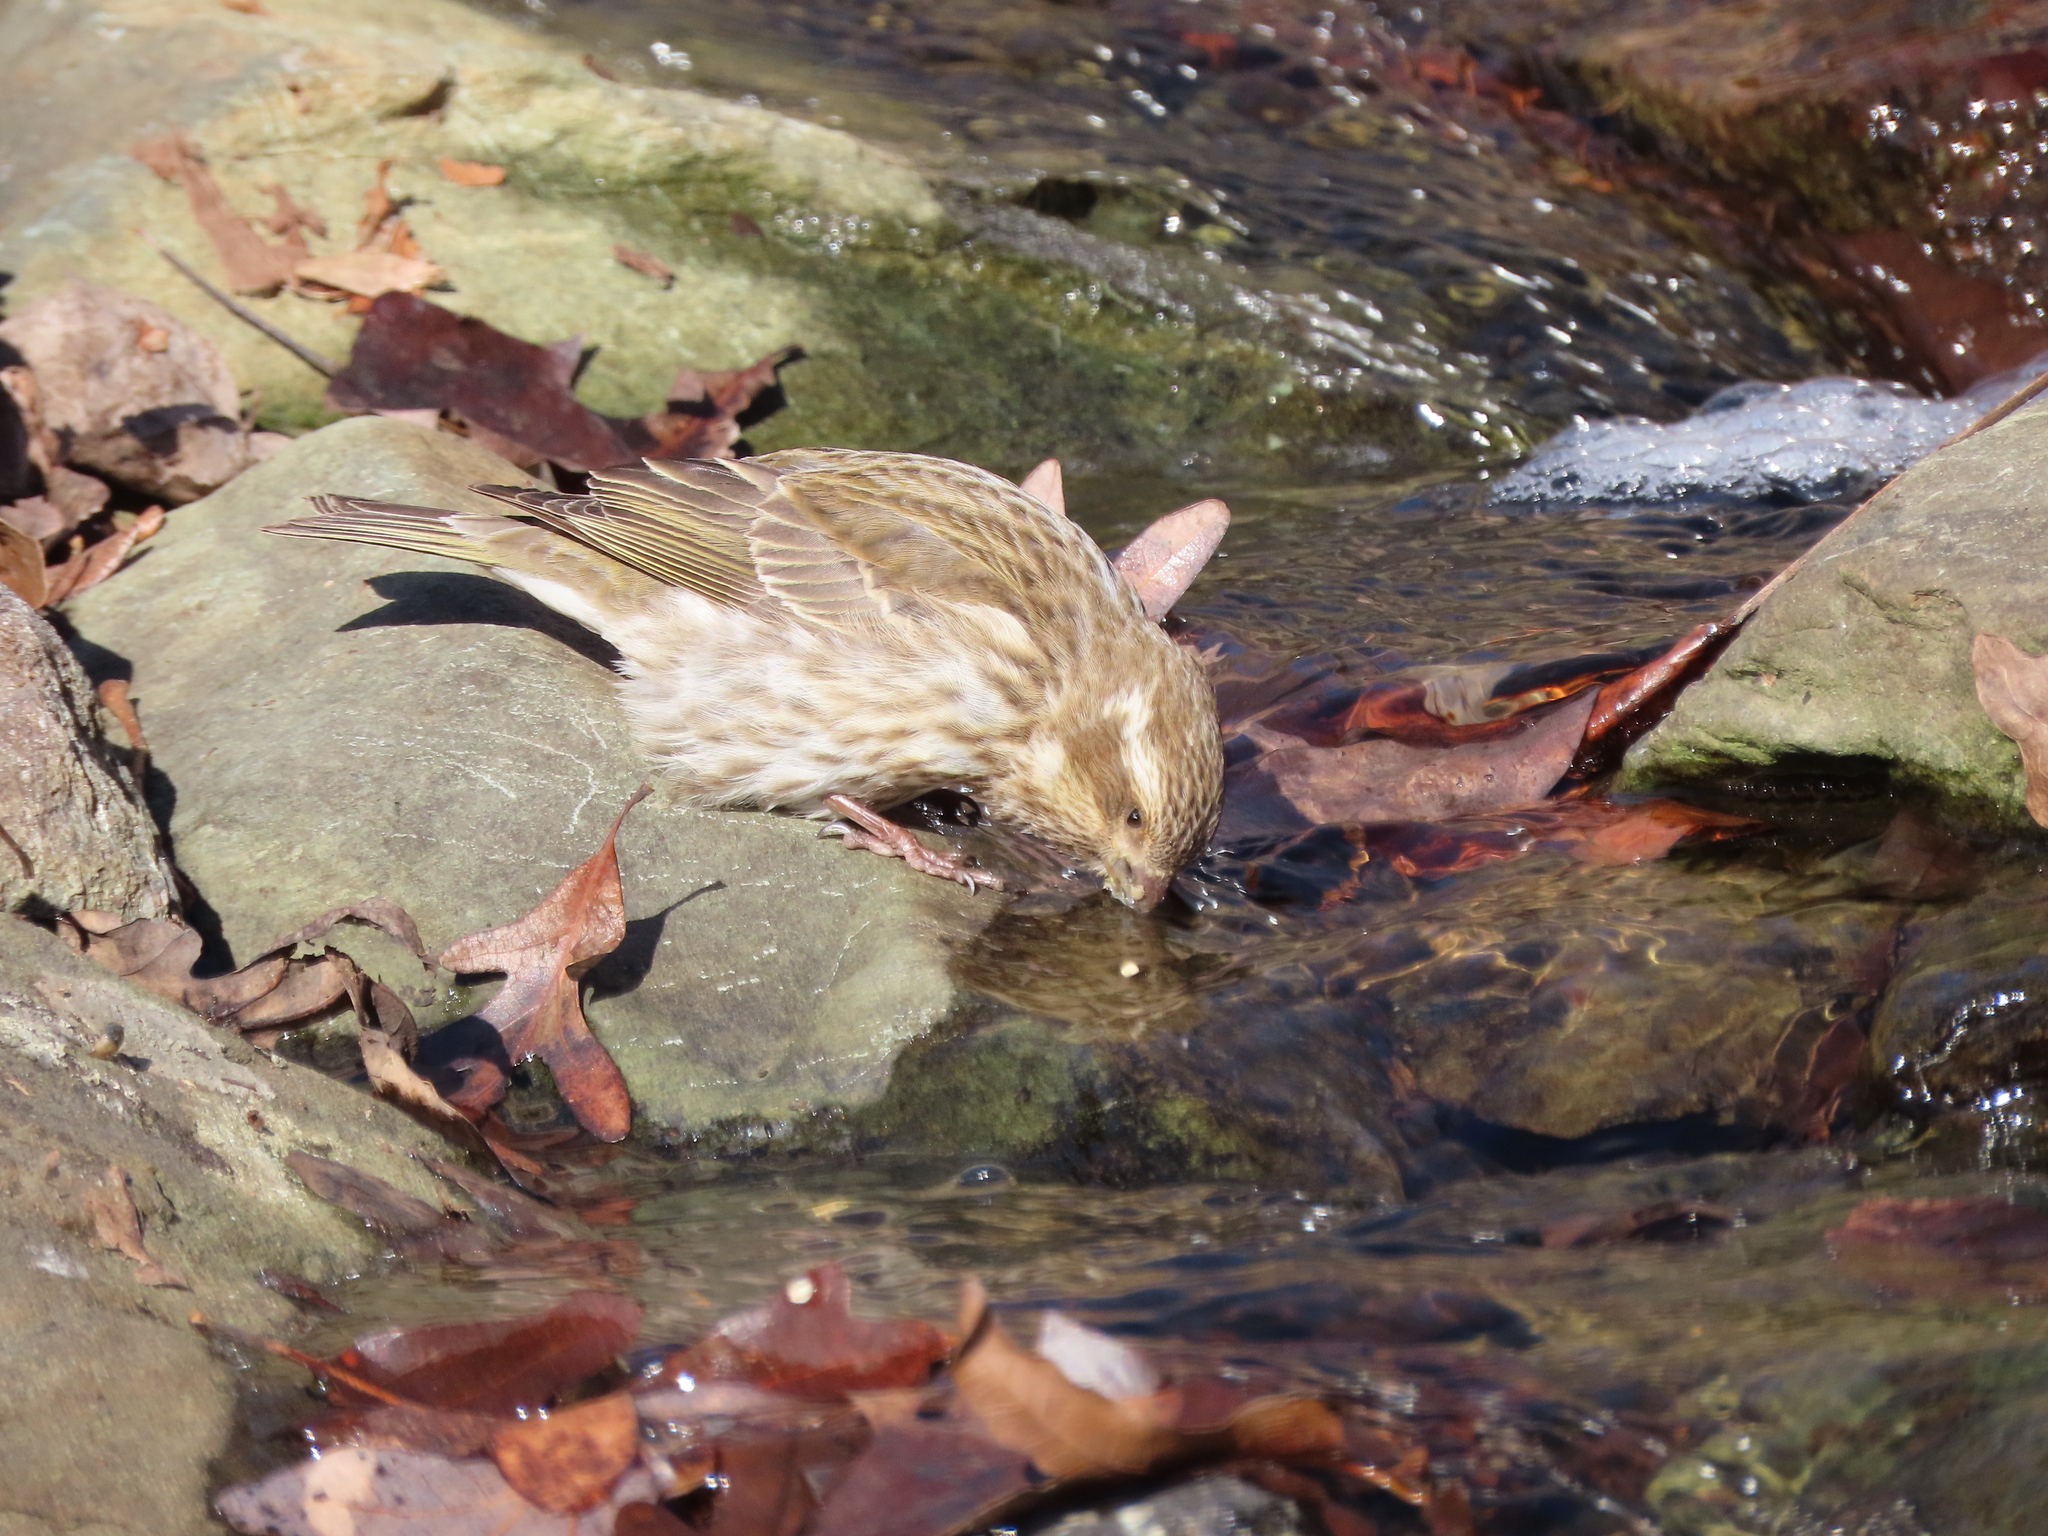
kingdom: Animalia
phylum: Chordata
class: Aves
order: Passeriformes
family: Fringillidae
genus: Haemorhous
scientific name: Haemorhous purpureus
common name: Purple finch
